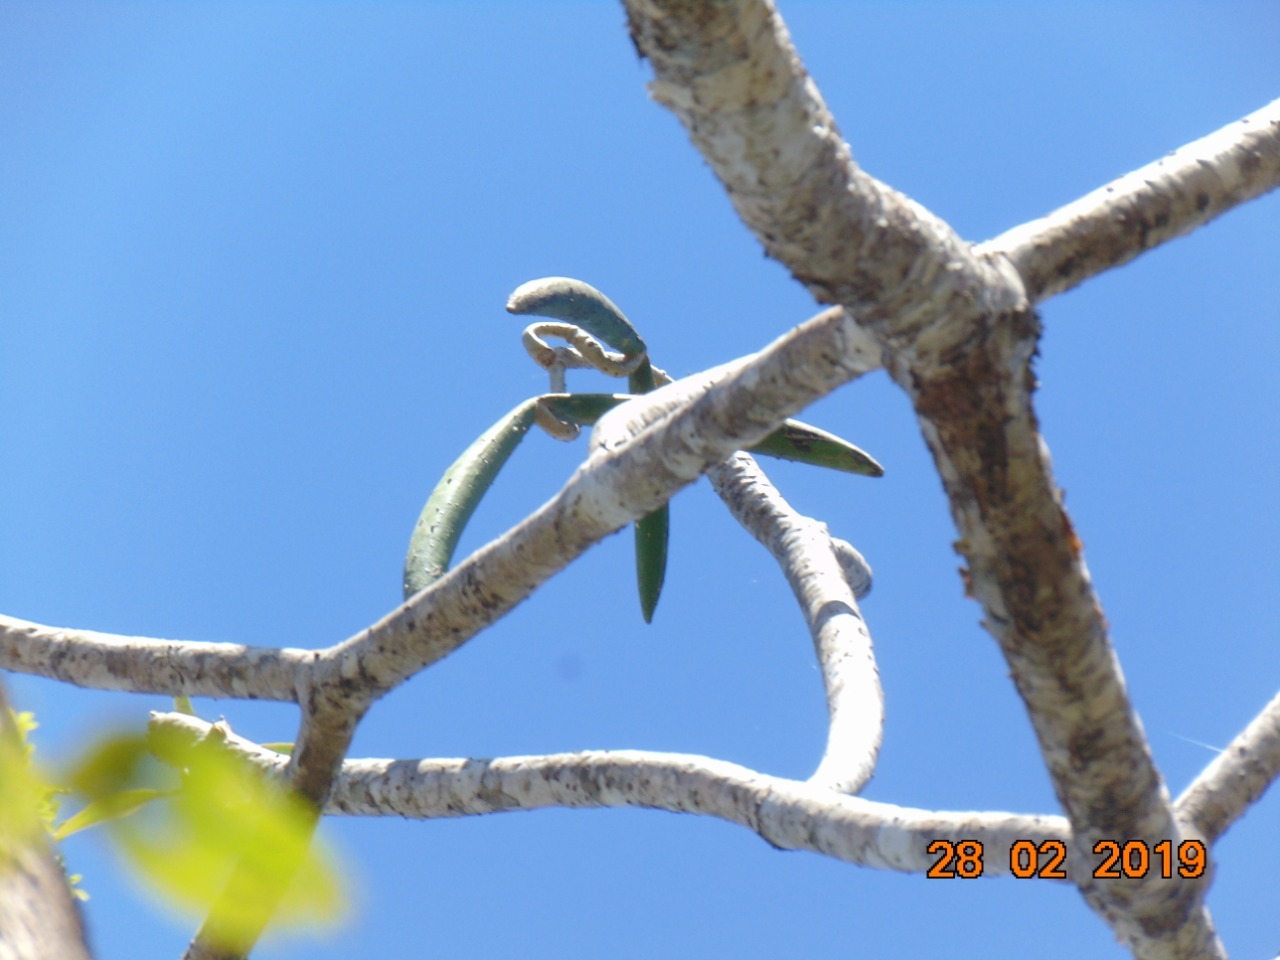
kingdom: Plantae
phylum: Tracheophyta
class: Magnoliopsida
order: Gentianales
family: Apocynaceae
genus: Plumeria
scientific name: Plumeria rubra
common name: Pagoda-tree
